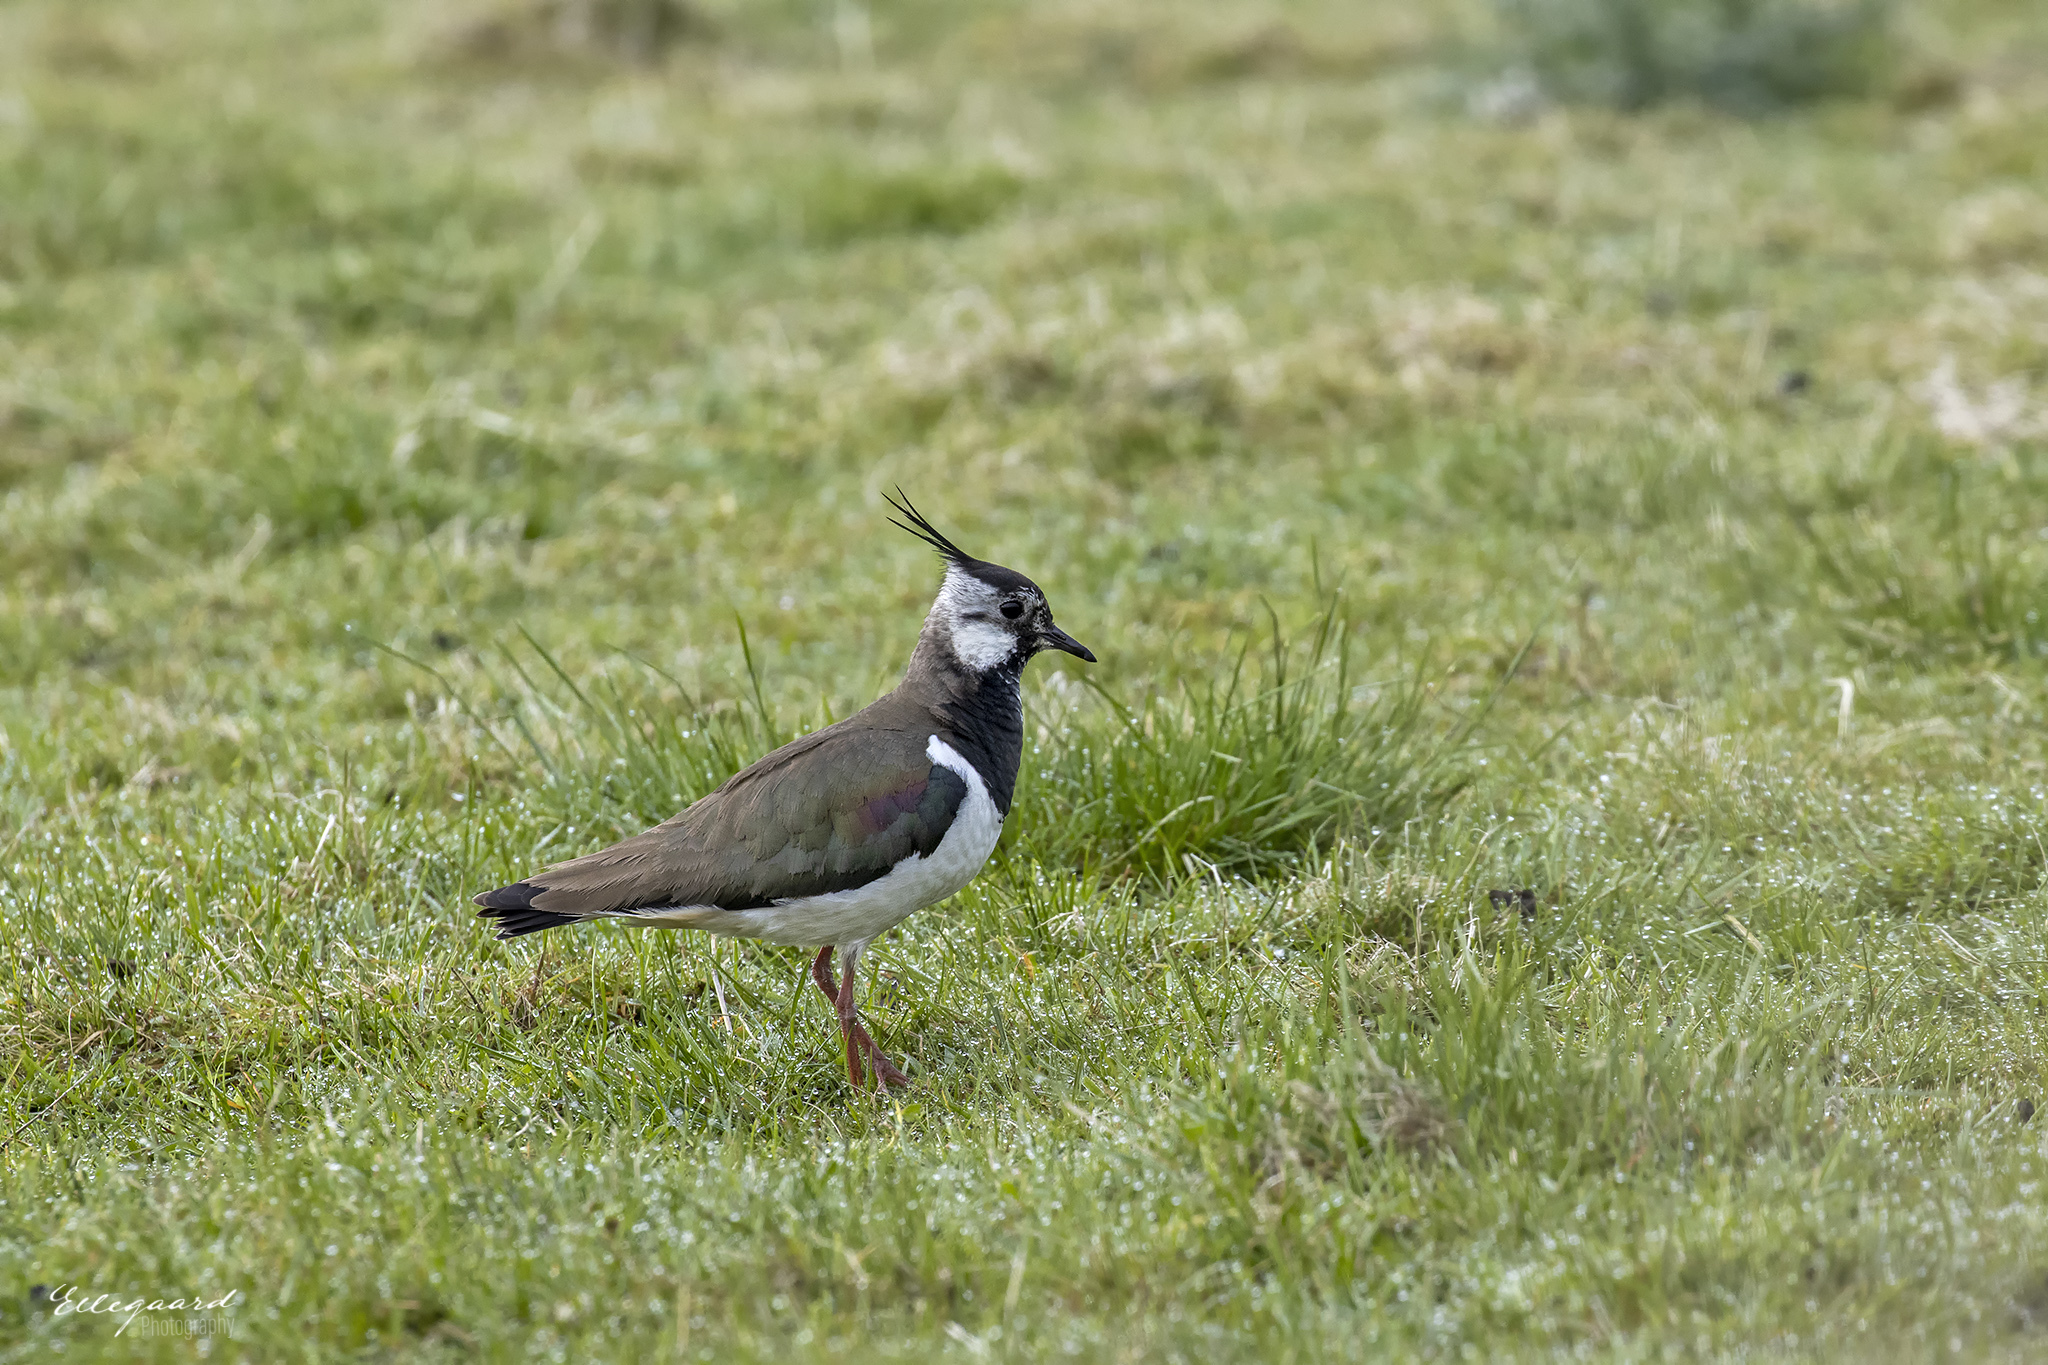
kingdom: Animalia
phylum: Chordata
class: Aves
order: Charadriiformes
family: Charadriidae
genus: Vanellus
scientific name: Vanellus vanellus
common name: Northern lapwing
